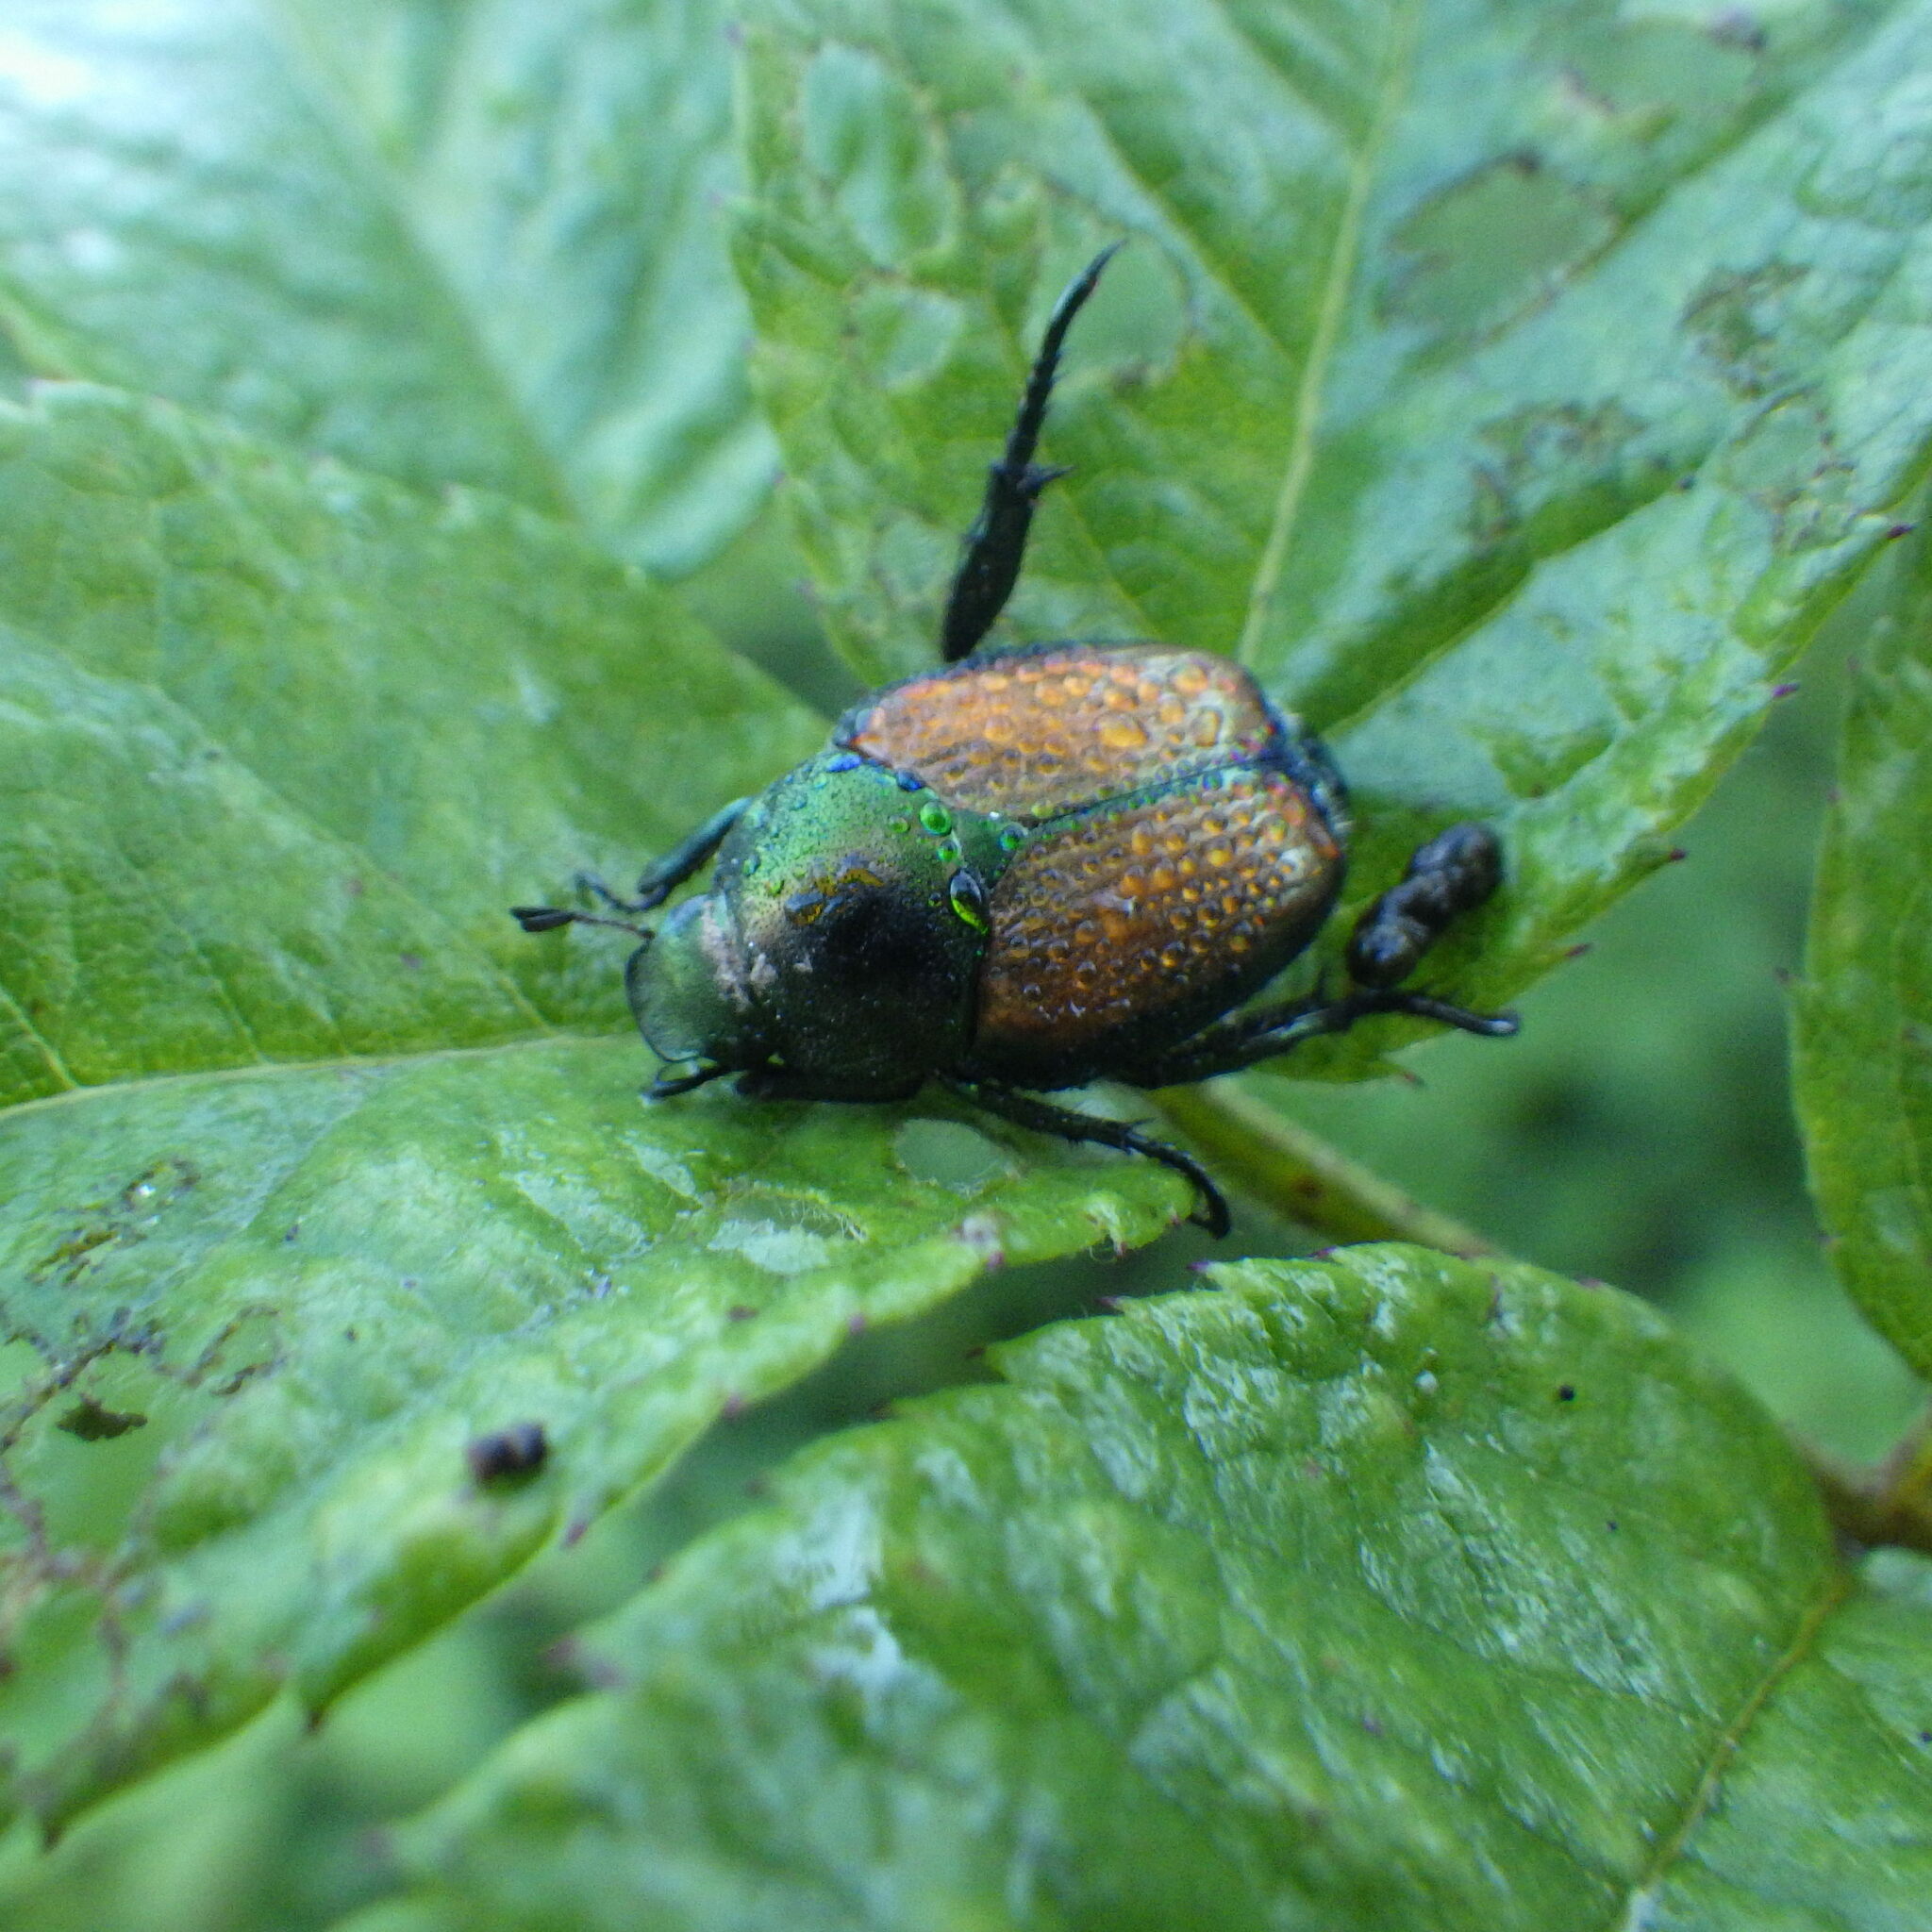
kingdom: Animalia
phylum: Arthropoda
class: Insecta
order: Coleoptera
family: Scarabaeidae
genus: Popillia
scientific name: Popillia japonica
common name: Japanese beetle
